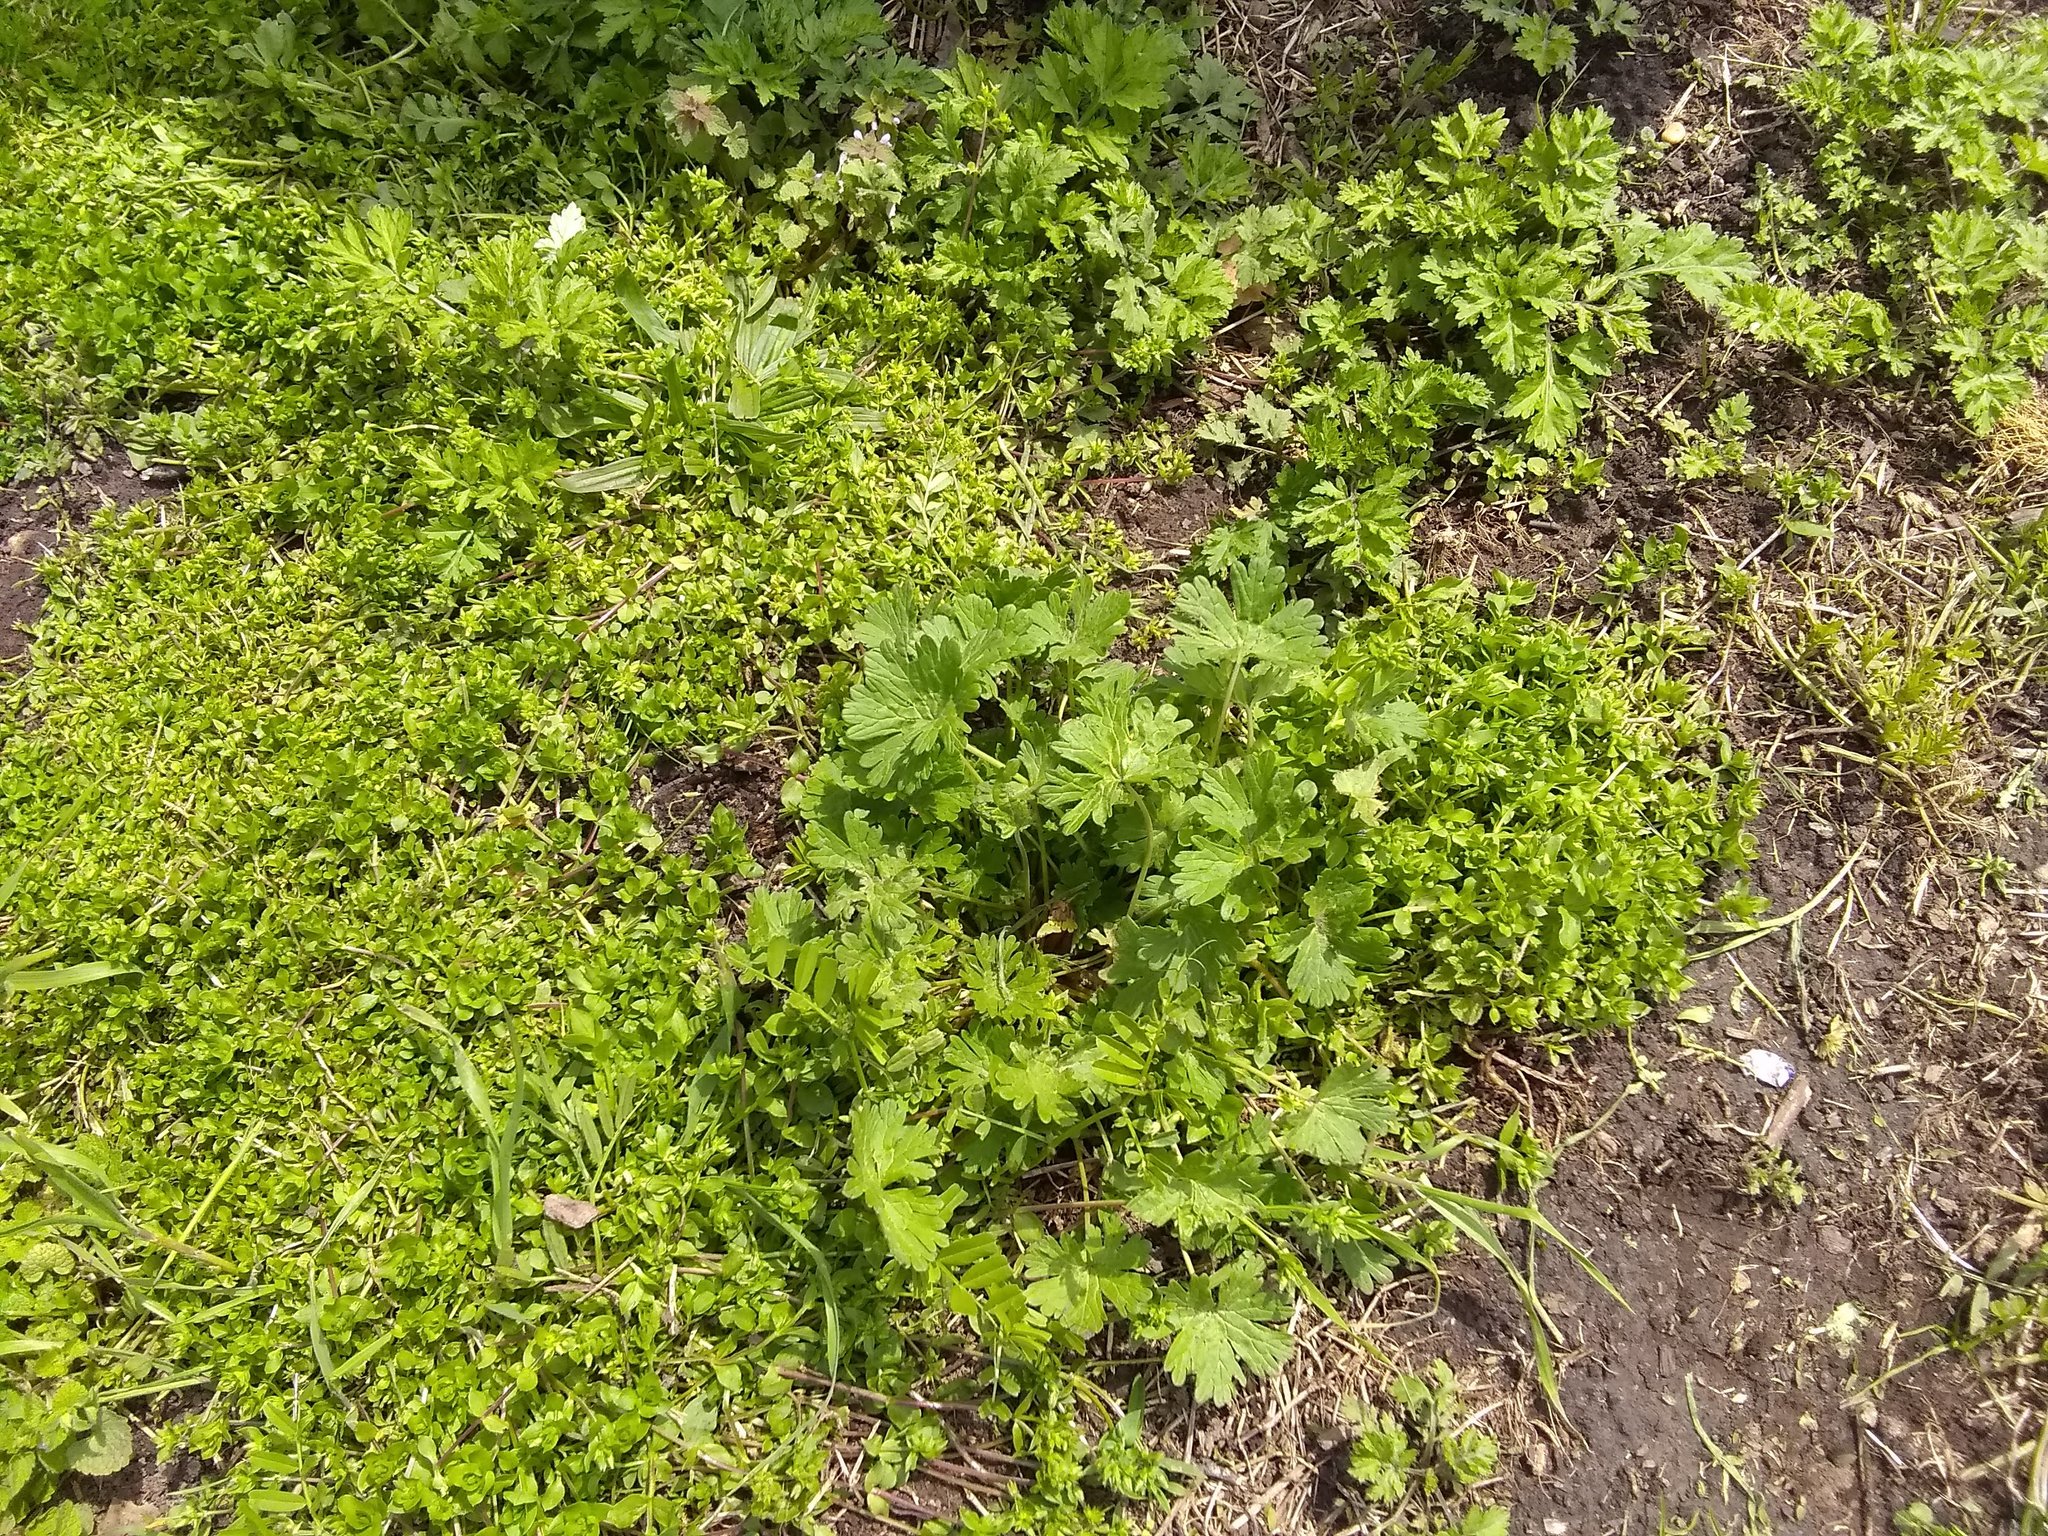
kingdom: Plantae
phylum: Tracheophyta
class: Magnoliopsida
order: Geraniales
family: Geraniaceae
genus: Geranium
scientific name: Geranium molle
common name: Dove's-foot crane's-bill
